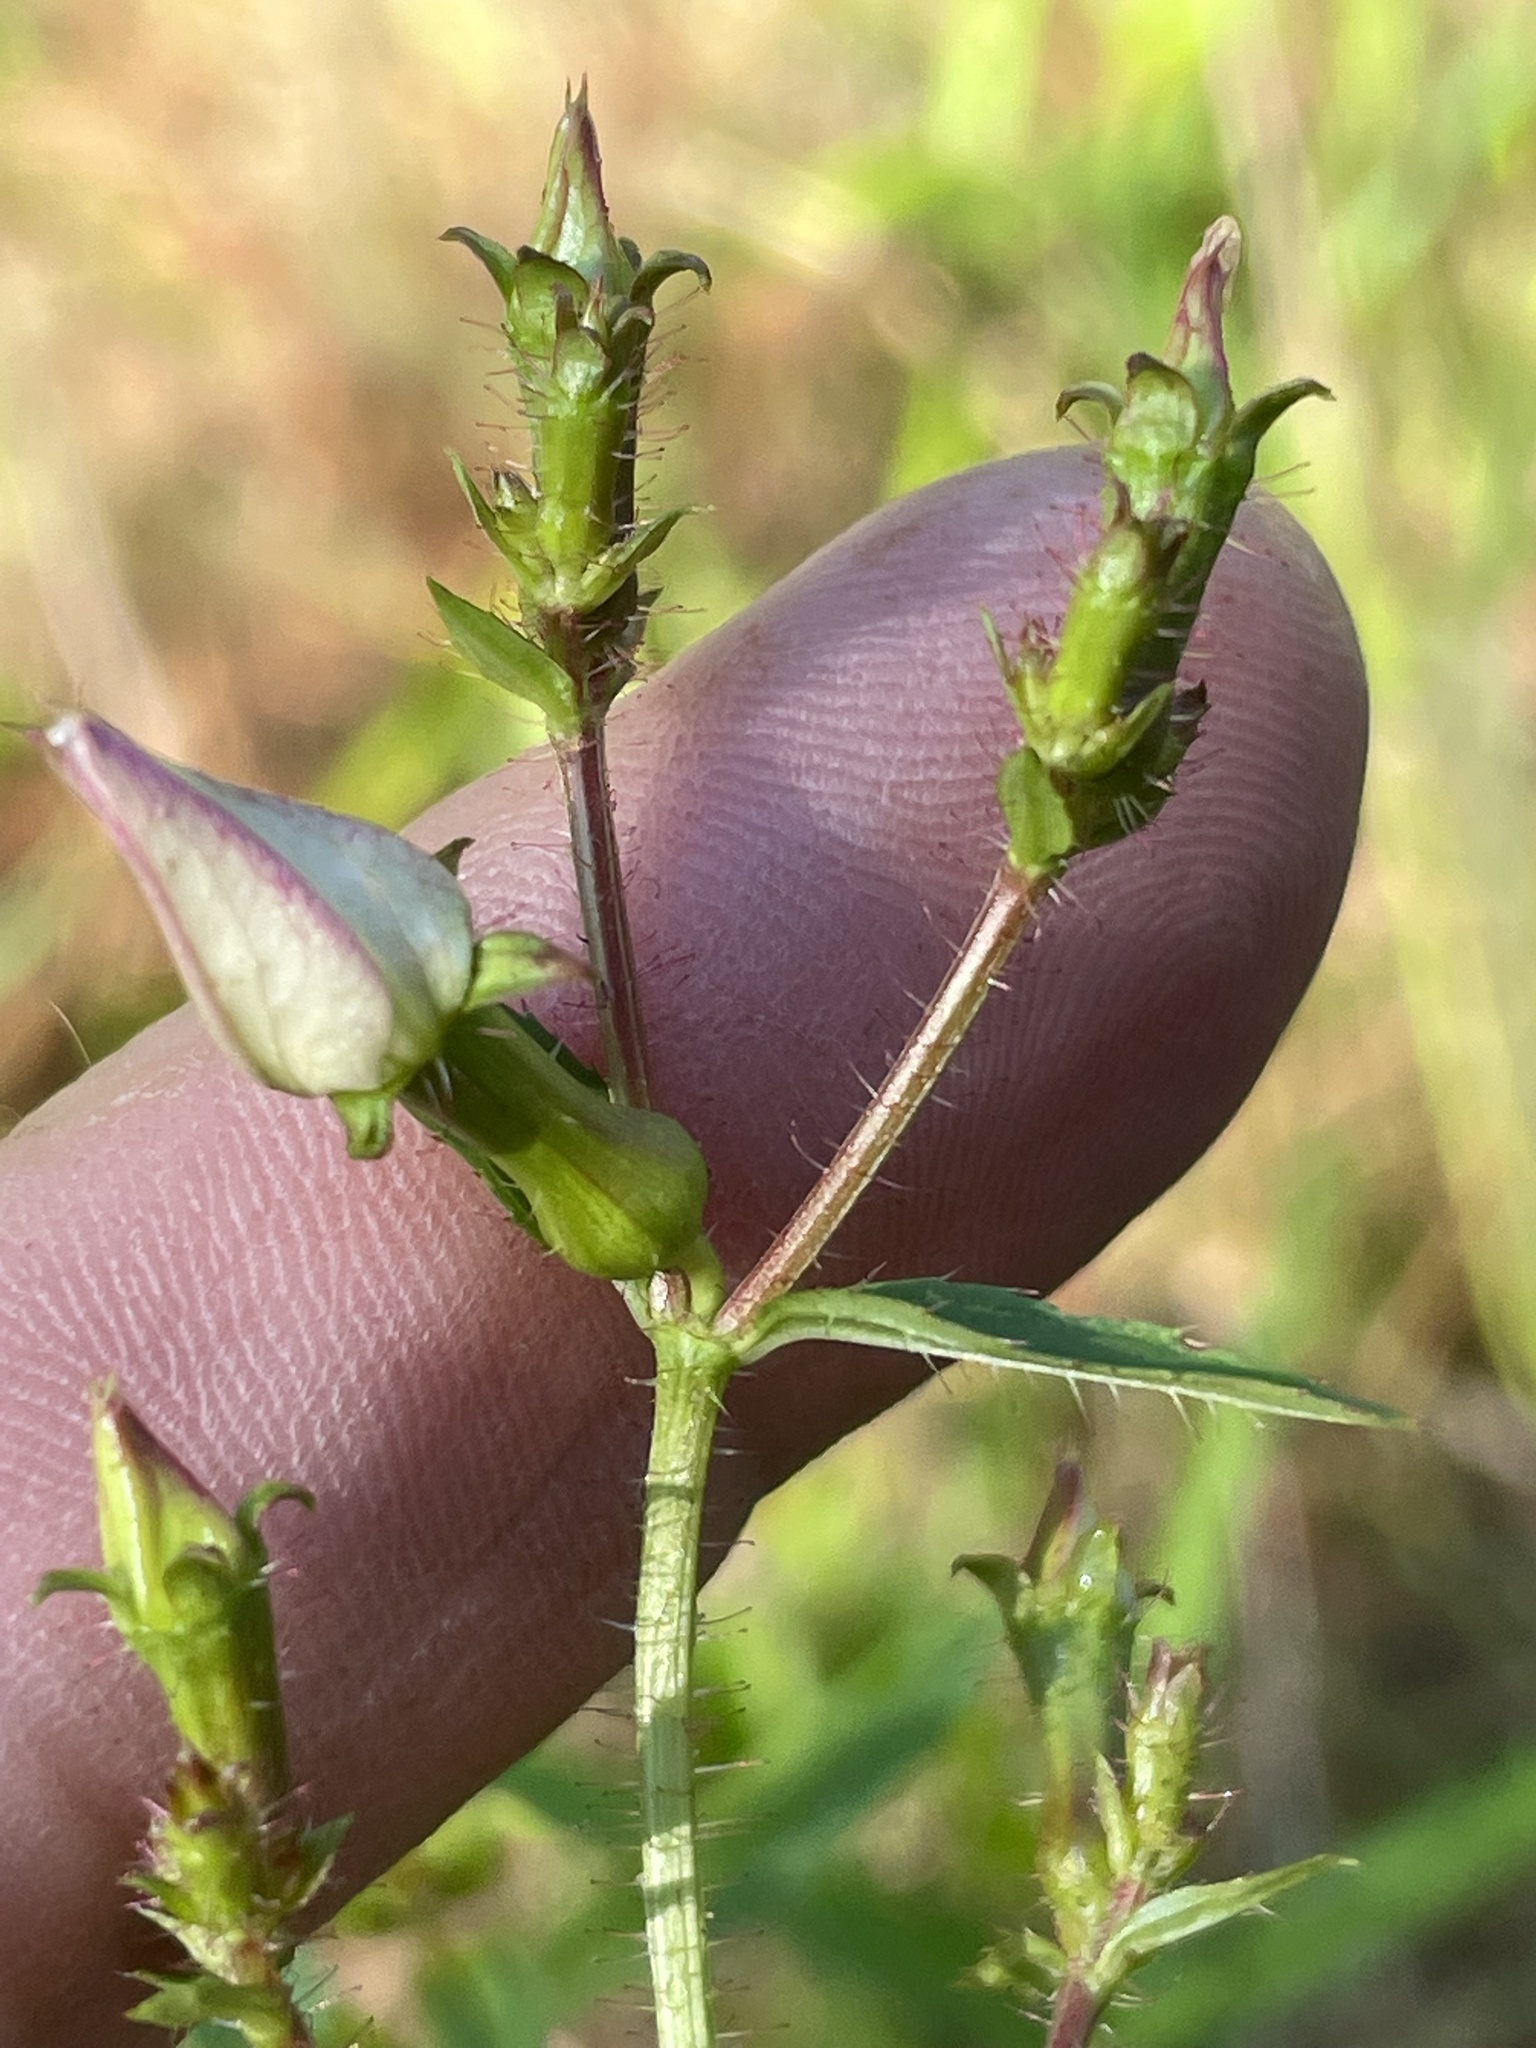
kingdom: Plantae
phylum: Tracheophyta
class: Magnoliopsida
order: Myrtales
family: Melastomataceae
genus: Rhexia
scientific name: Rhexia mariana
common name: Dull meadow-pitcher
